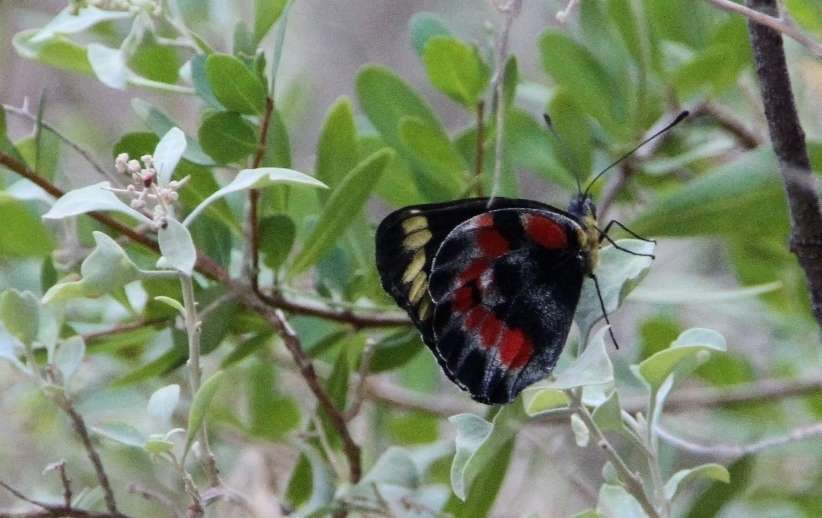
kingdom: Animalia
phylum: Arthropoda
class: Insecta
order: Lepidoptera
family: Pieridae
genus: Delias
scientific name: Delias harpalyce
